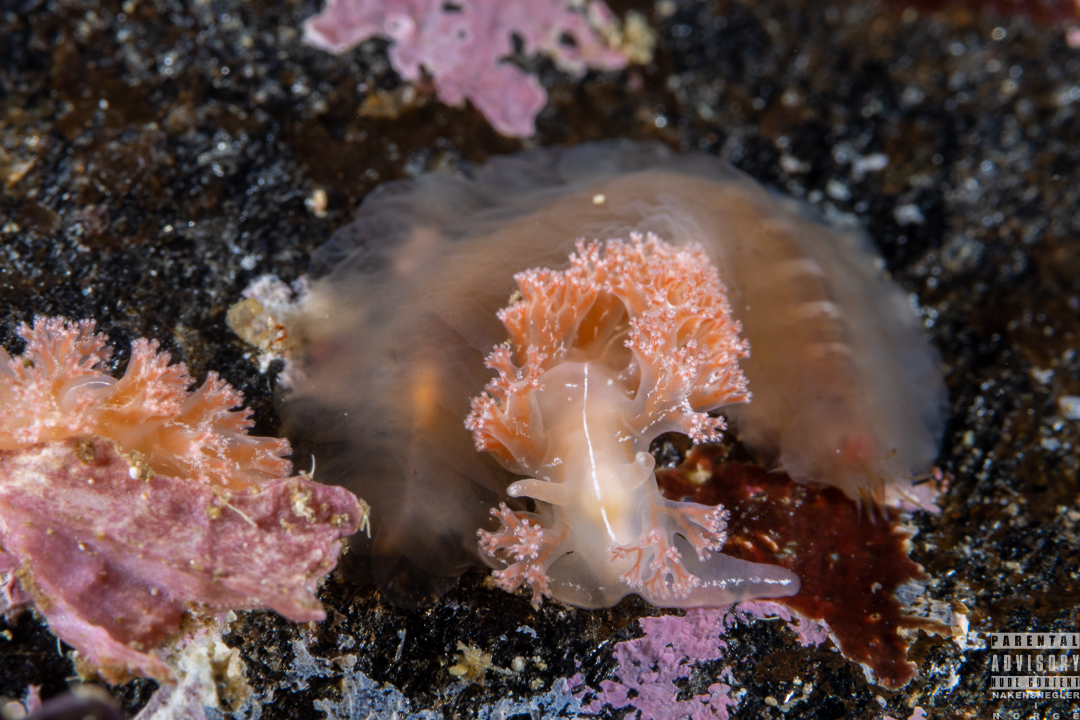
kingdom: Animalia
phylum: Mollusca
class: Gastropoda
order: Nudibranchia
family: Heroidae
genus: Hero
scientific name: Hero formosa
